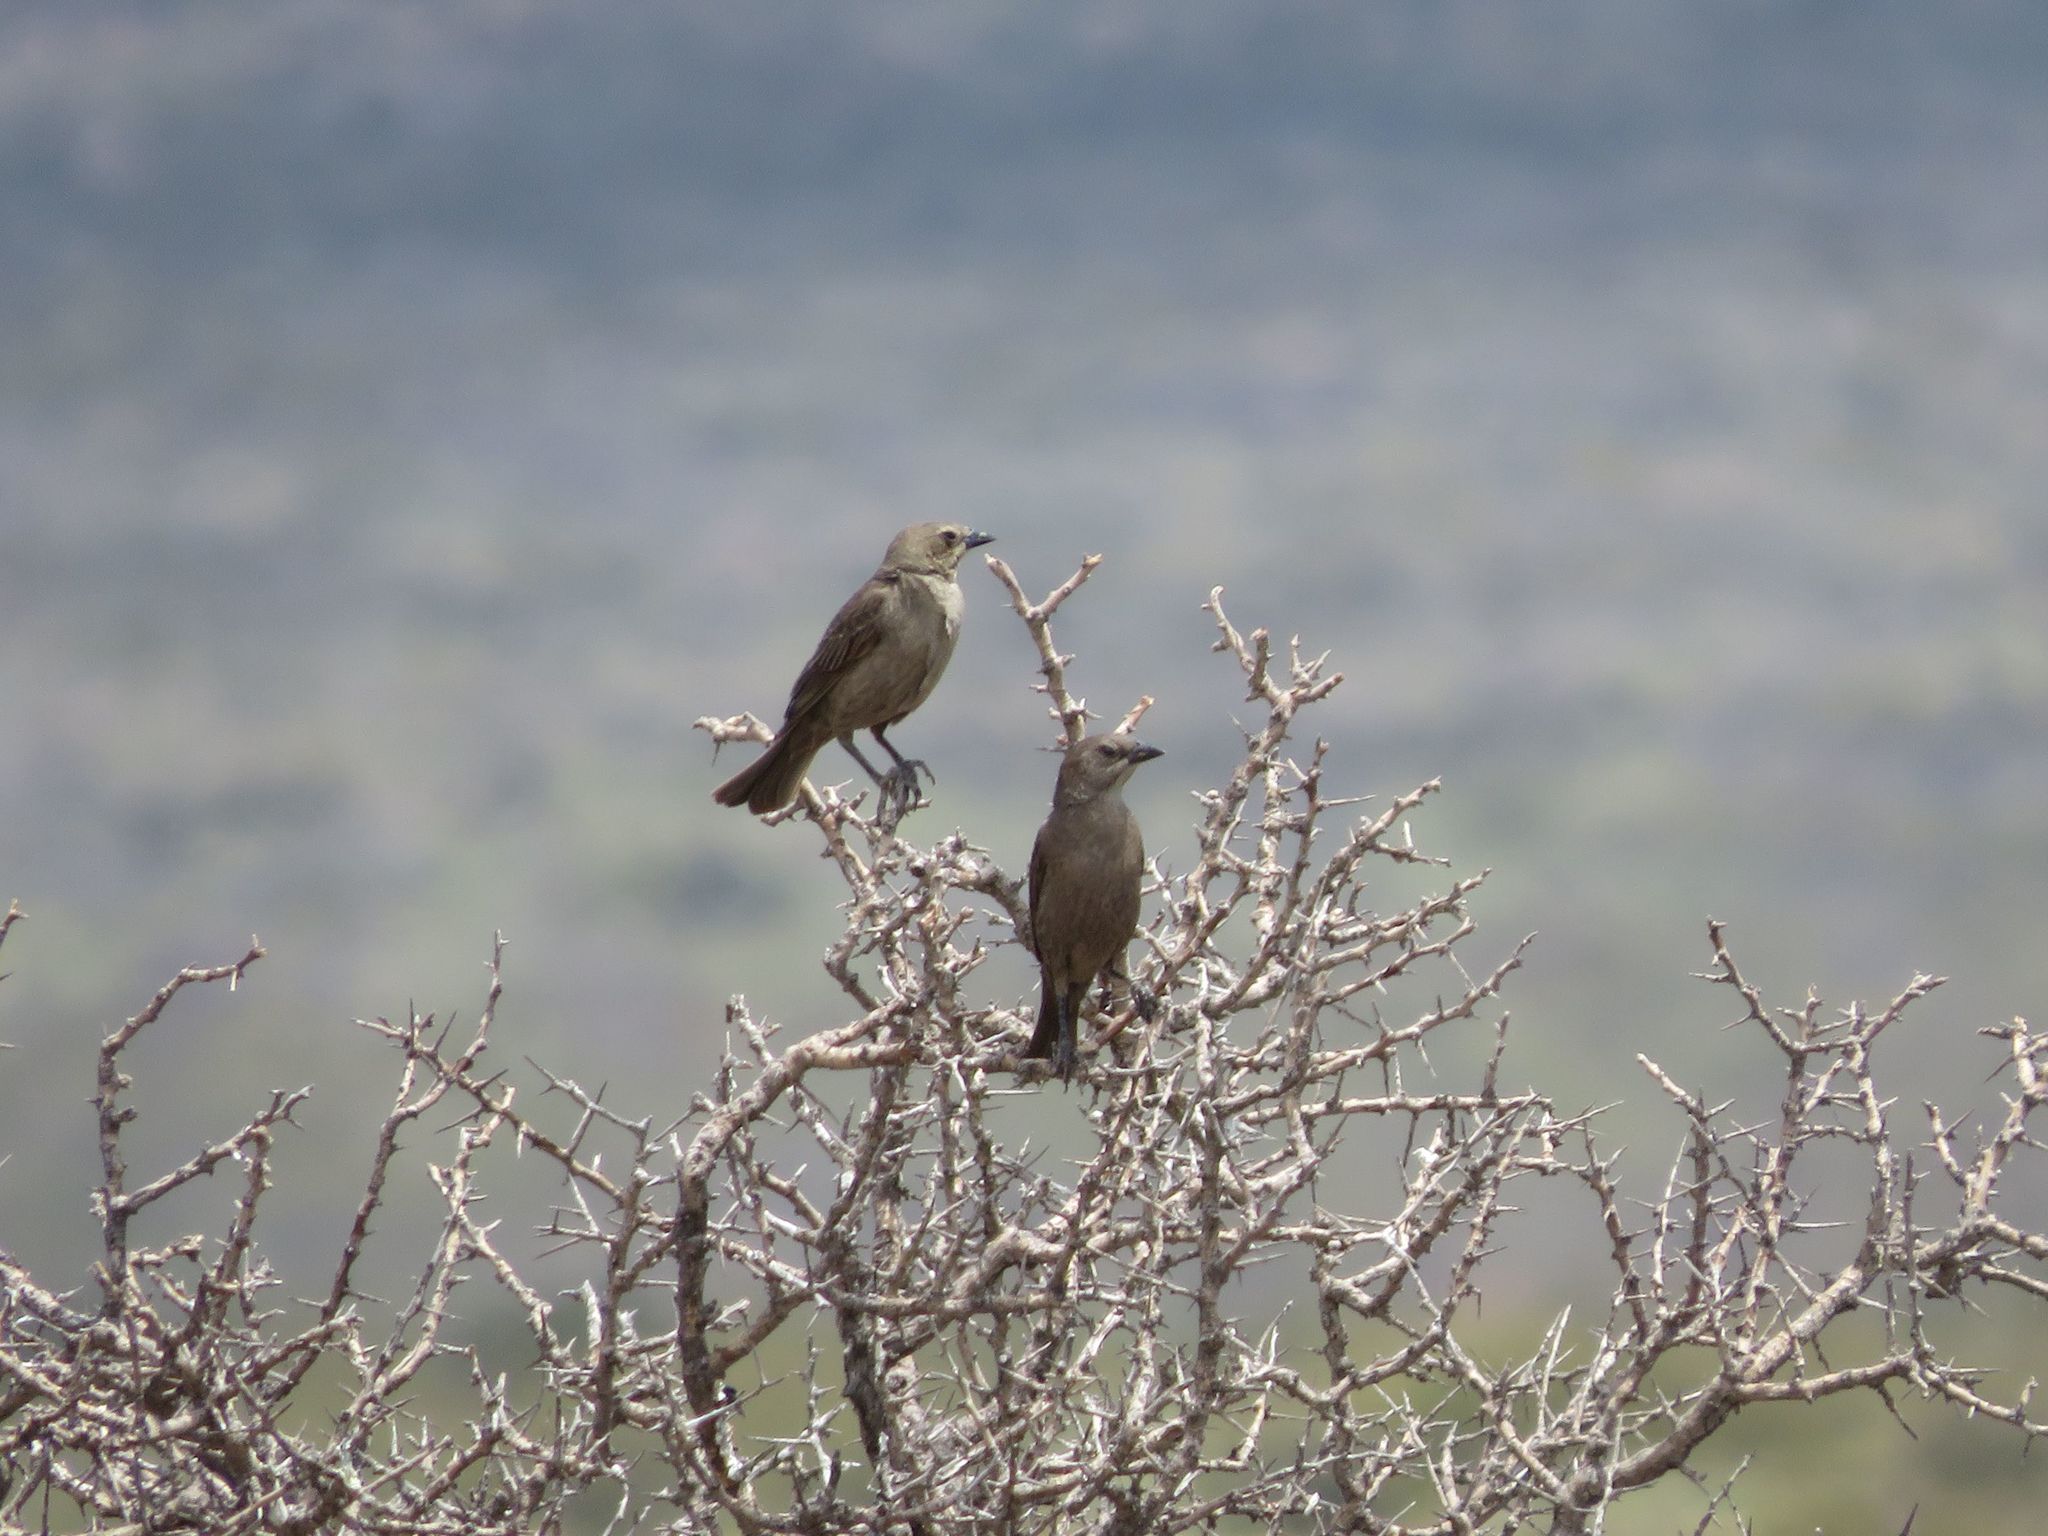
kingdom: Animalia
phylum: Chordata
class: Aves
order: Passeriformes
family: Icteridae
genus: Molothrus
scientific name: Molothrus bonariensis
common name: Shiny cowbird
